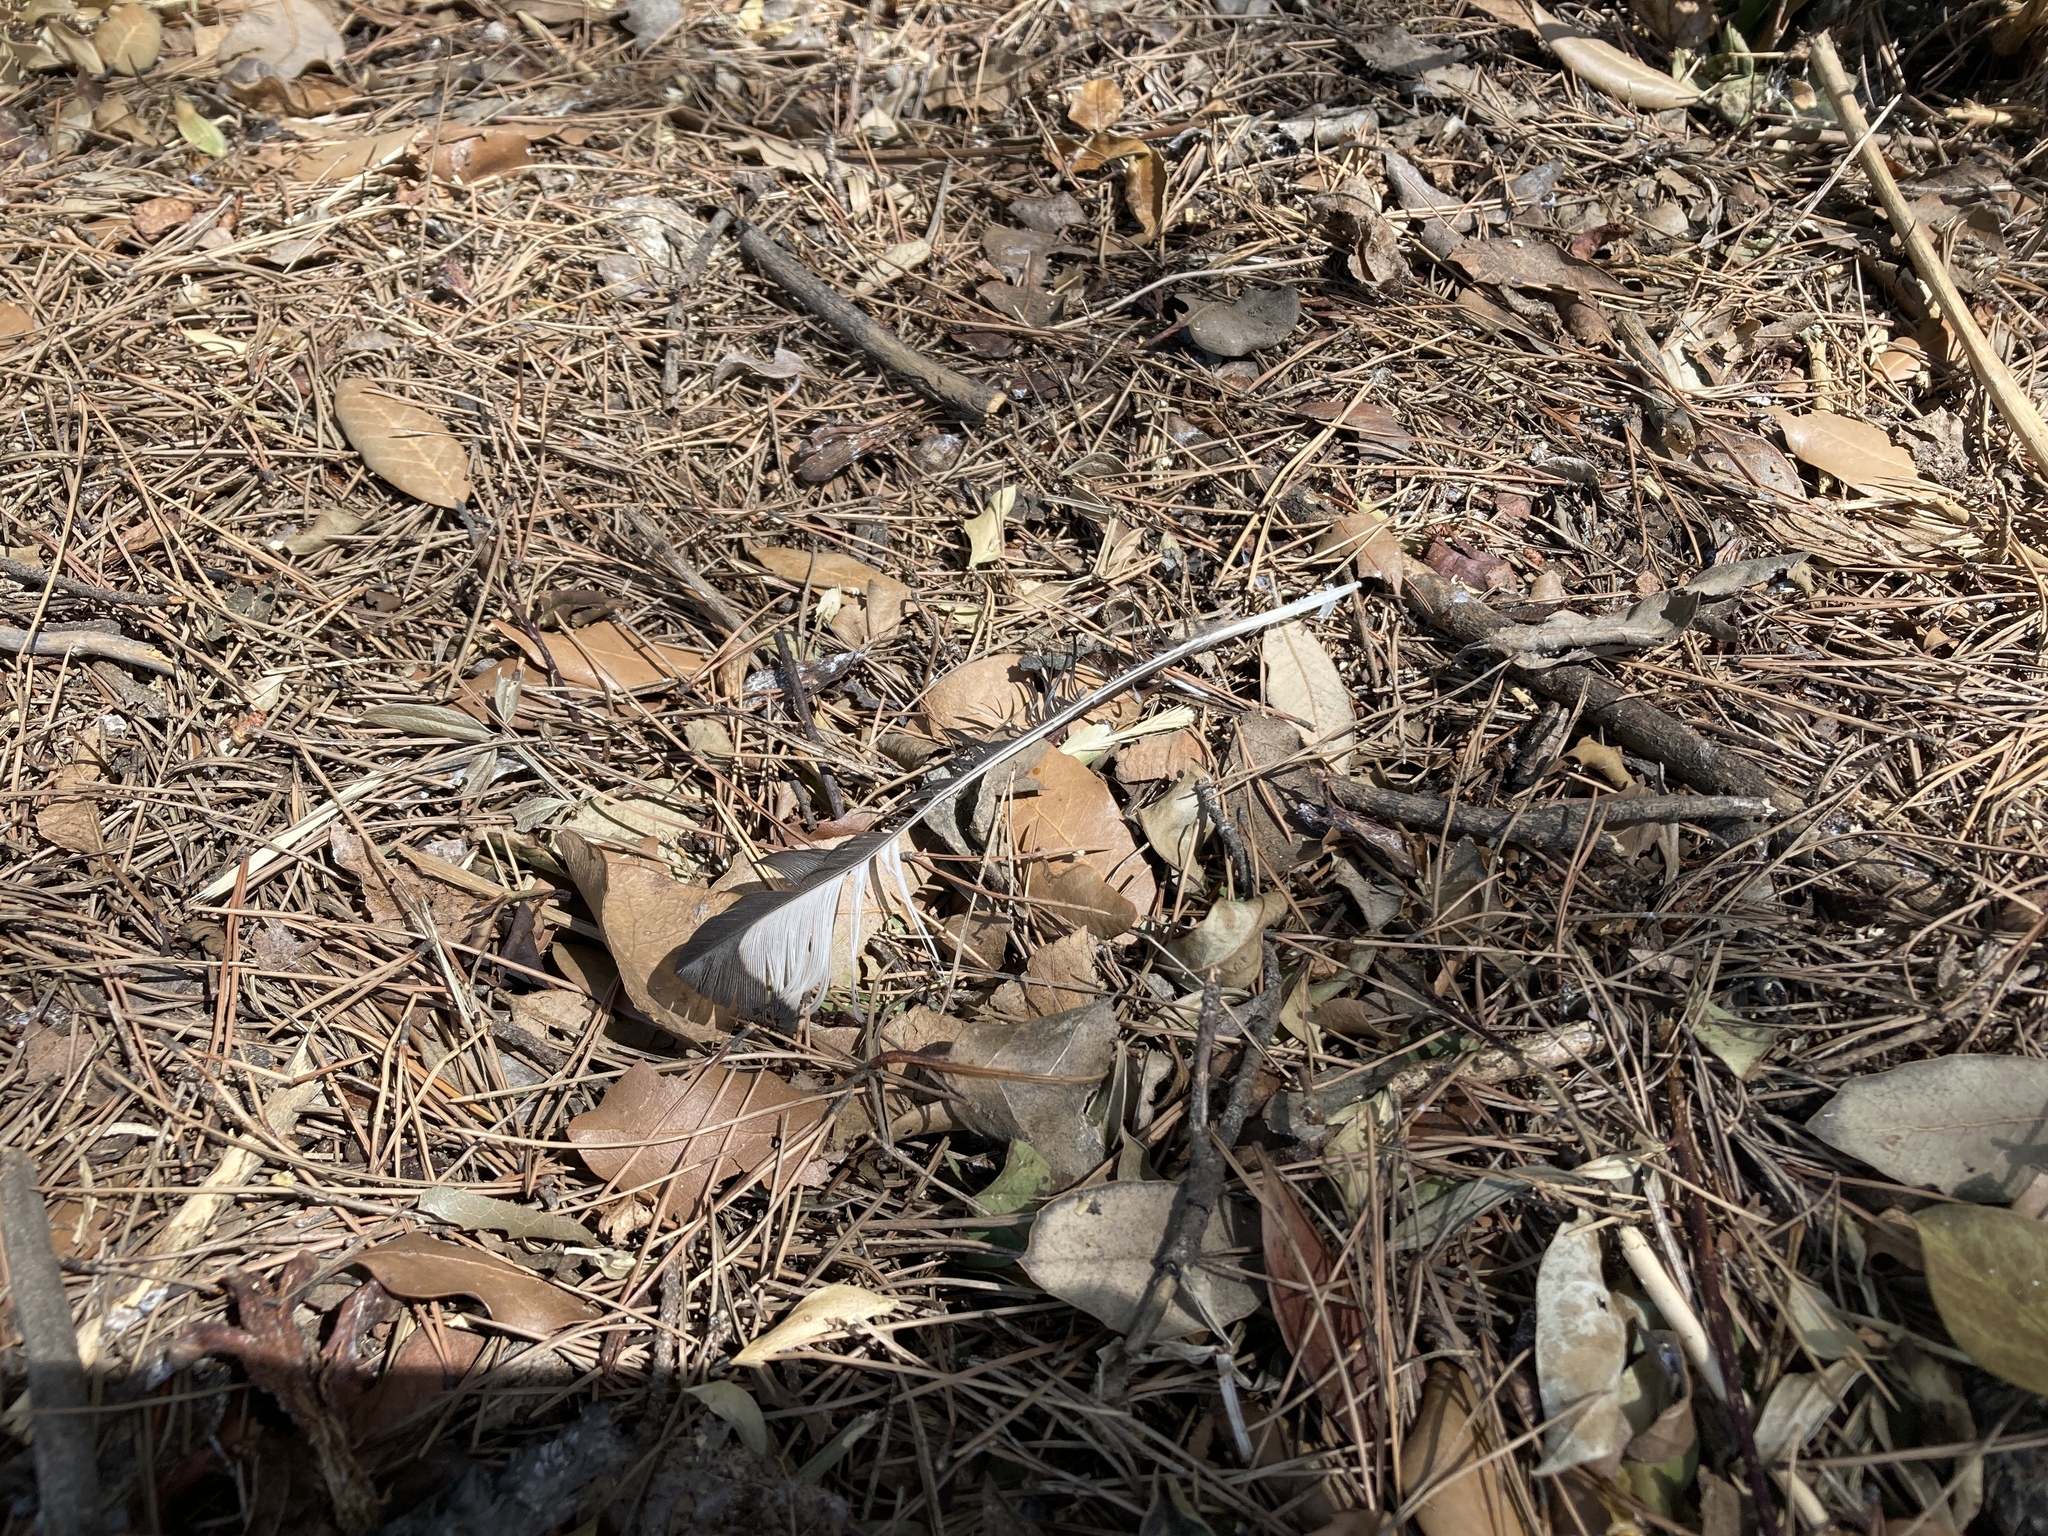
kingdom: Animalia
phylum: Chordata
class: Aves
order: Passeriformes
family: Corvidae
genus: Pica
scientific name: Pica pica
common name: Eurasian magpie
